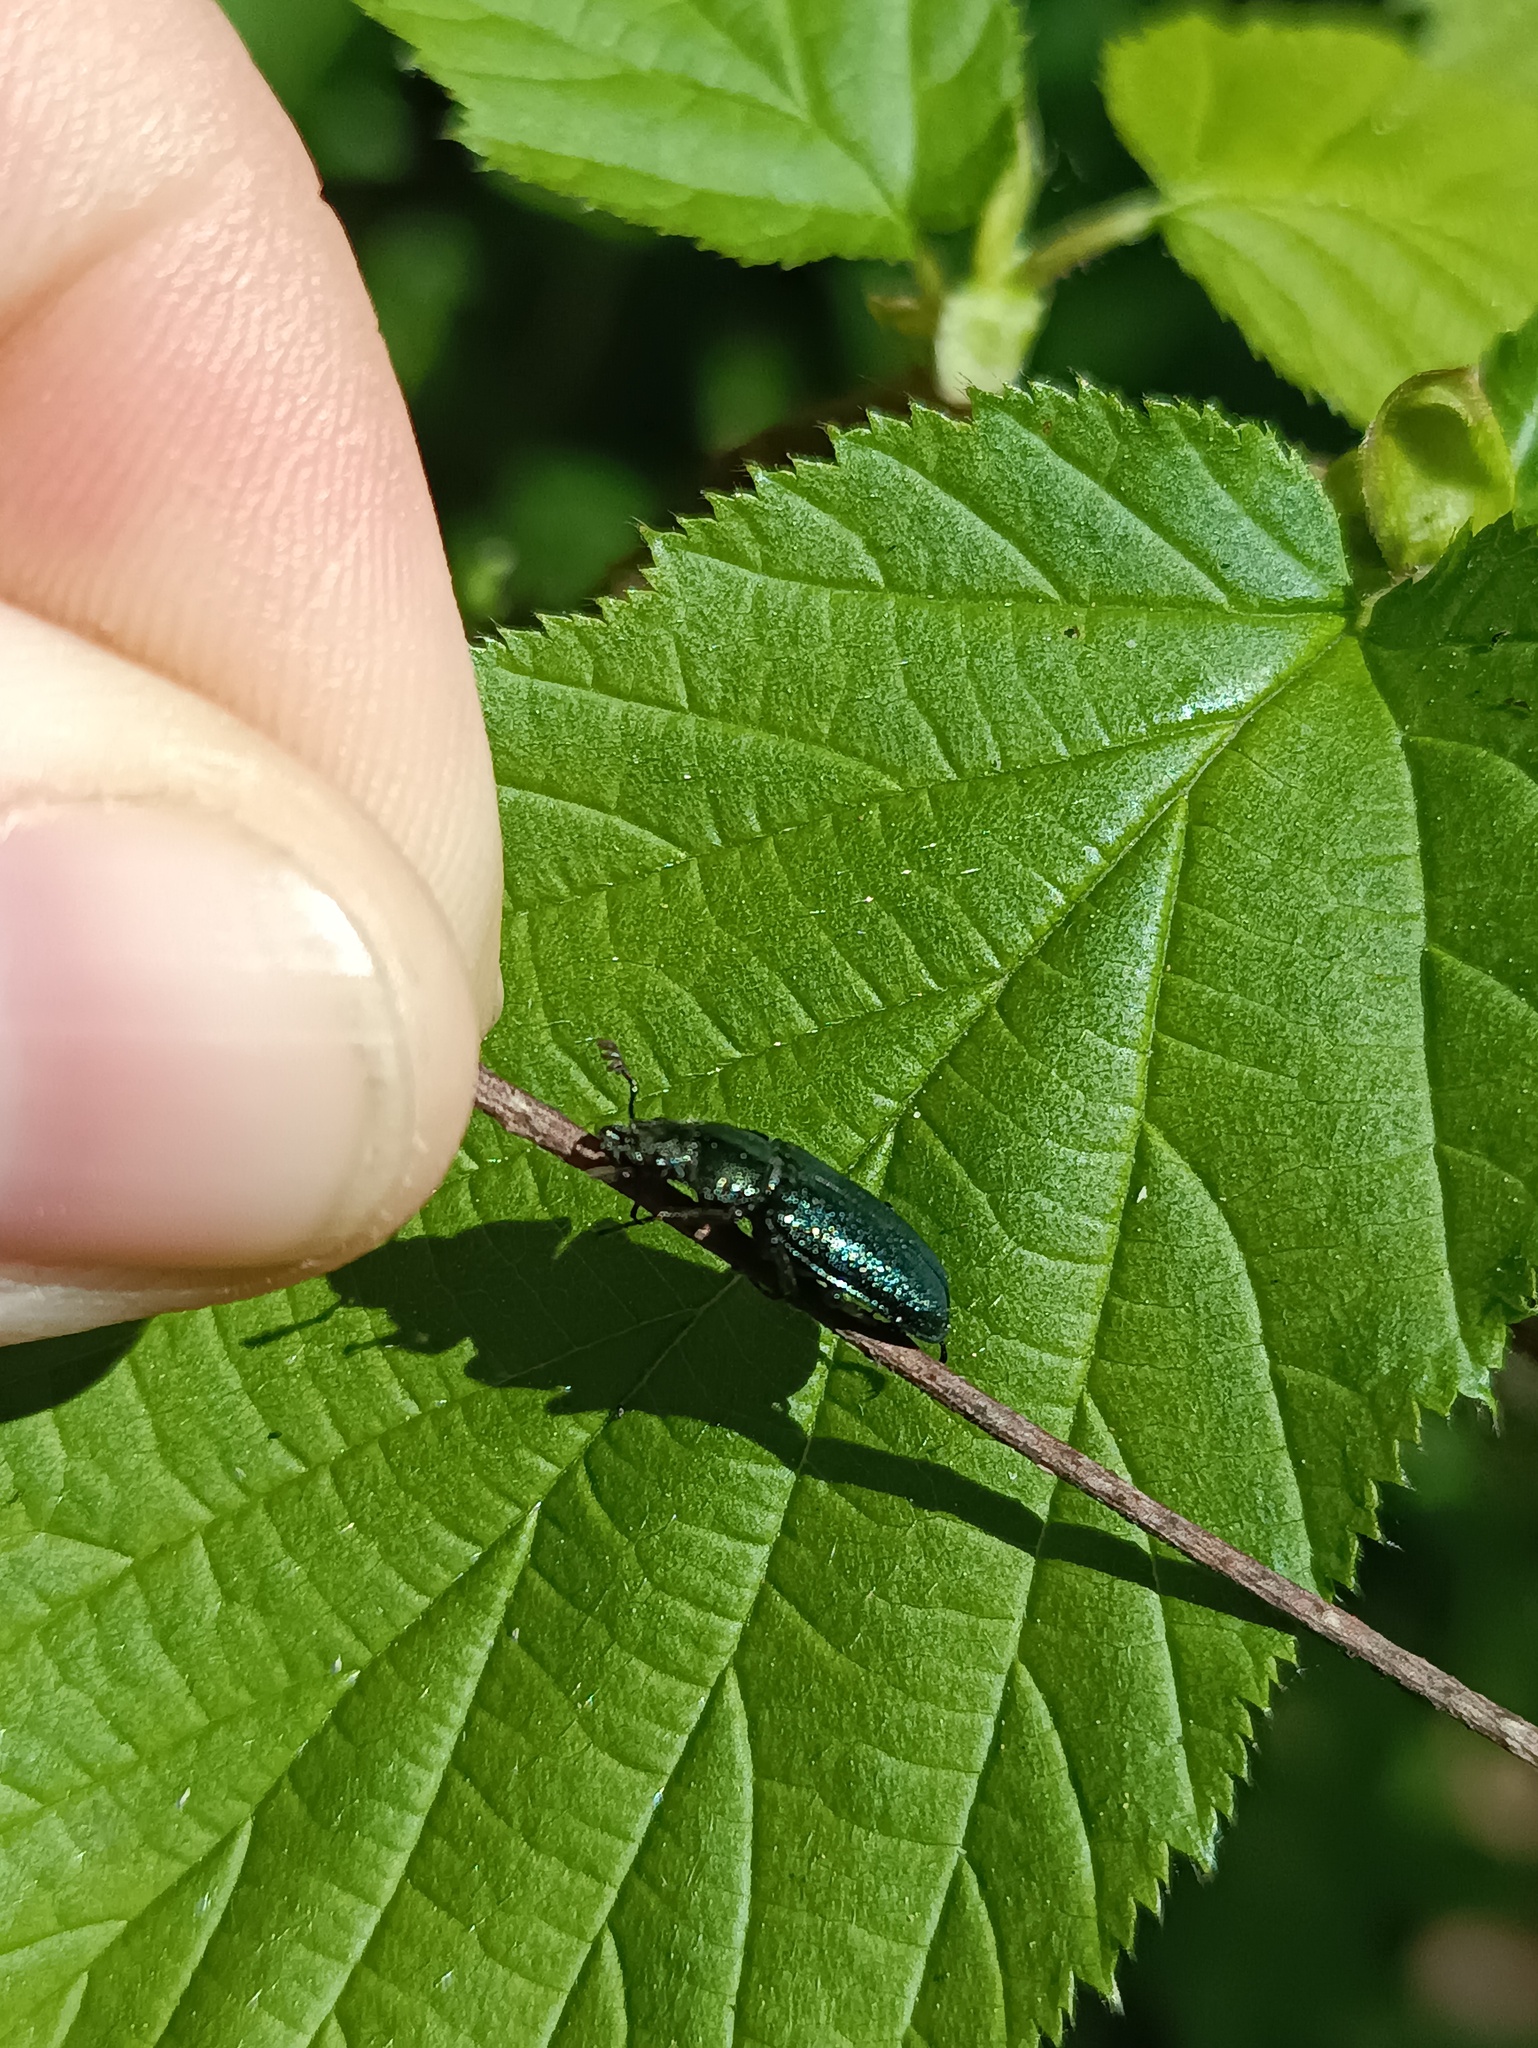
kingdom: Animalia
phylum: Arthropoda
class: Insecta
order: Coleoptera
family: Lucanidae
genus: Platycerus
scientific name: Platycerus caraboides
